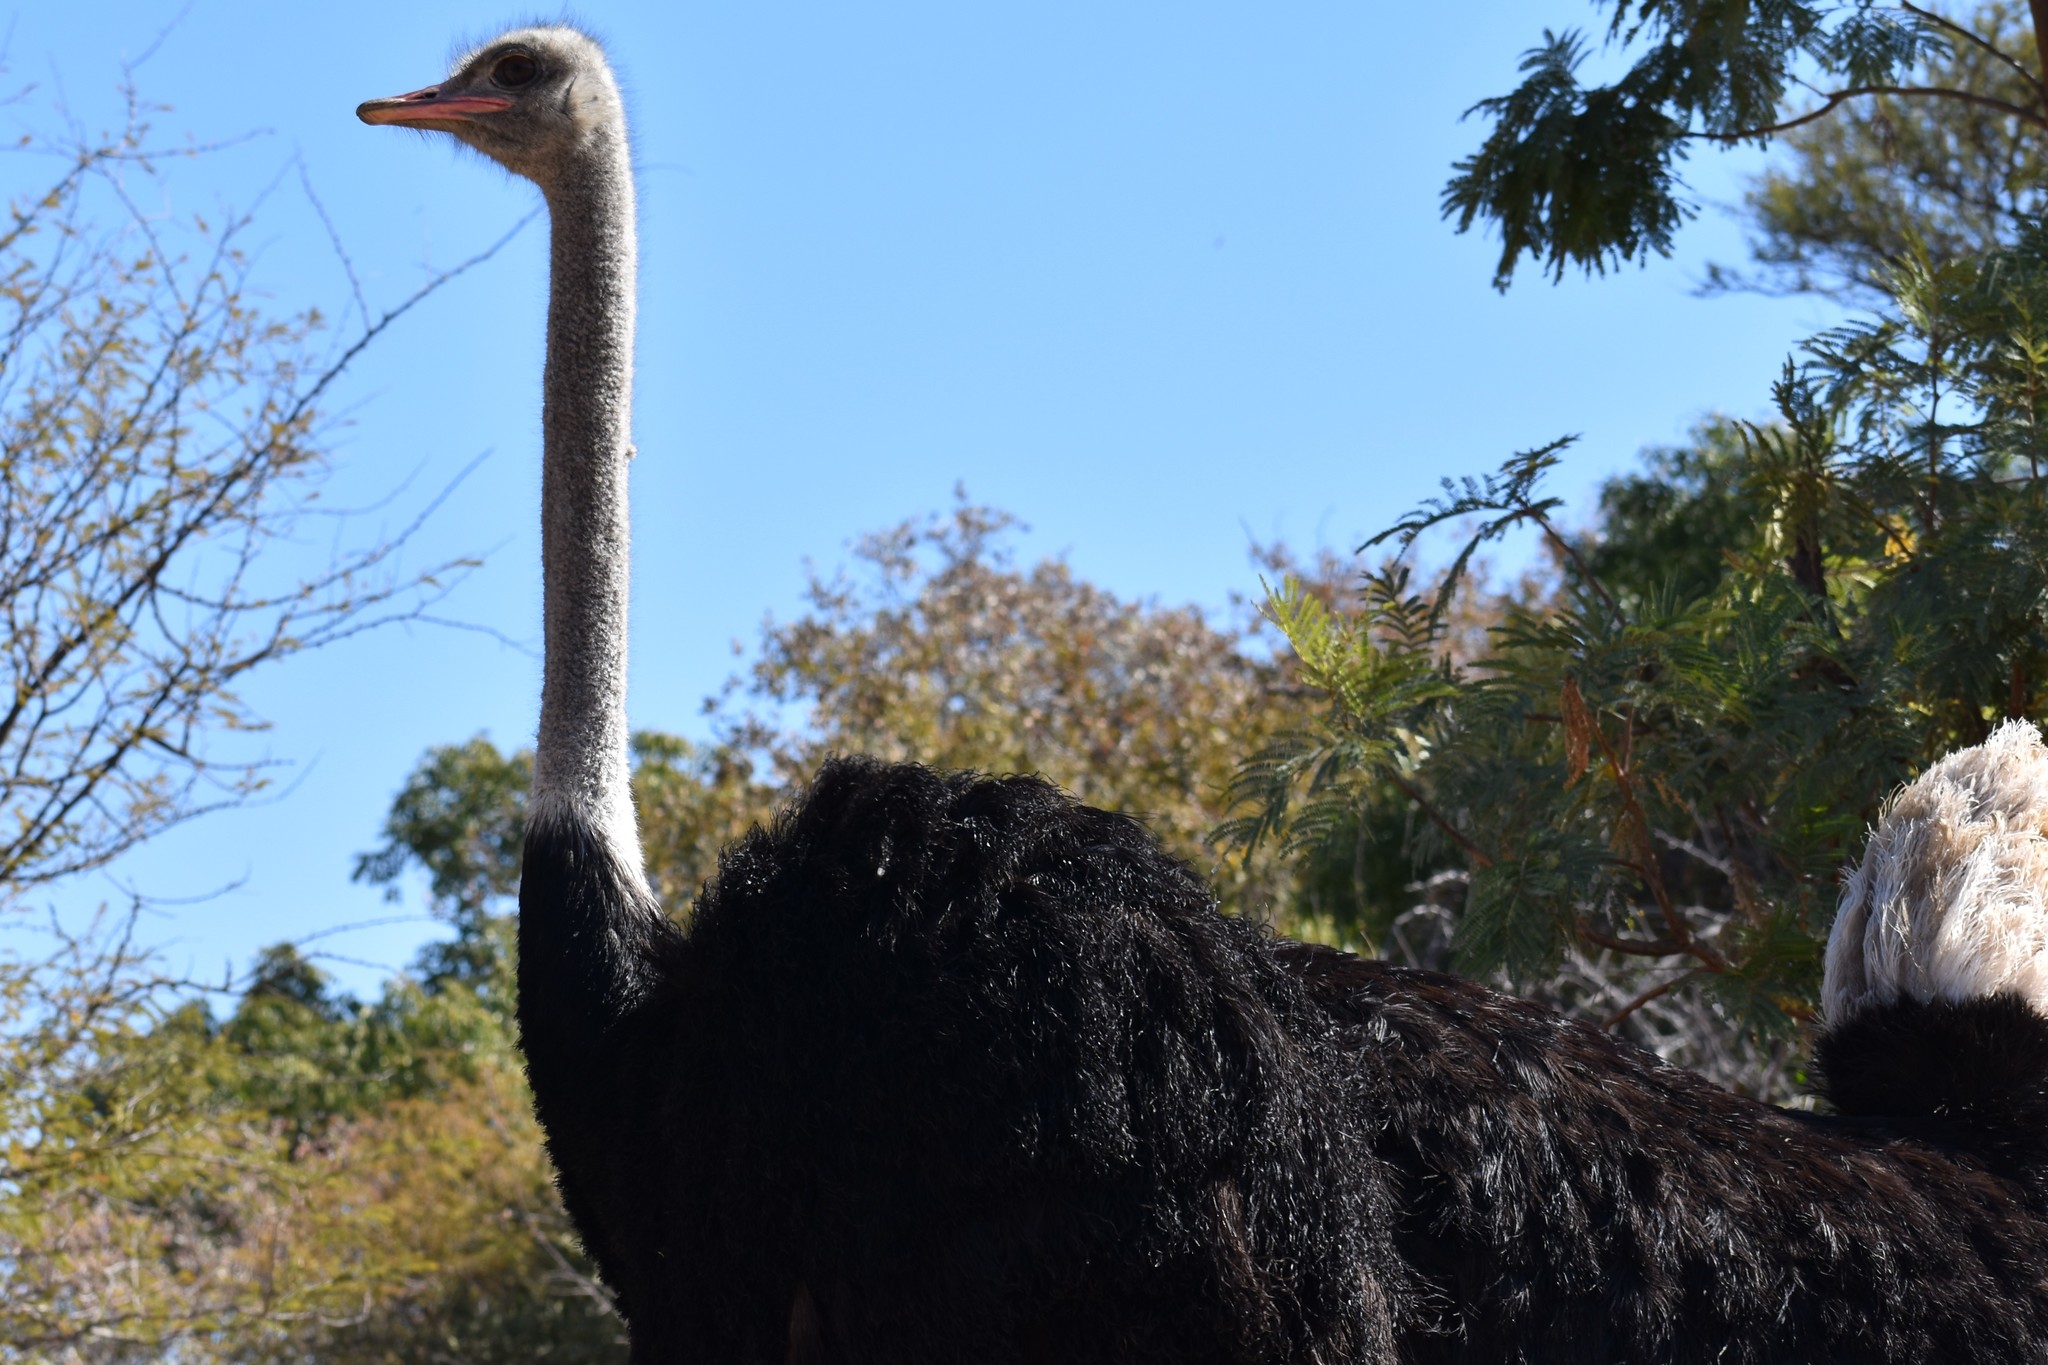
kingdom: Animalia
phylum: Chordata
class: Aves
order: Struthioniformes
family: Struthionidae
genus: Struthio
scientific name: Struthio camelus
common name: Common ostrich
